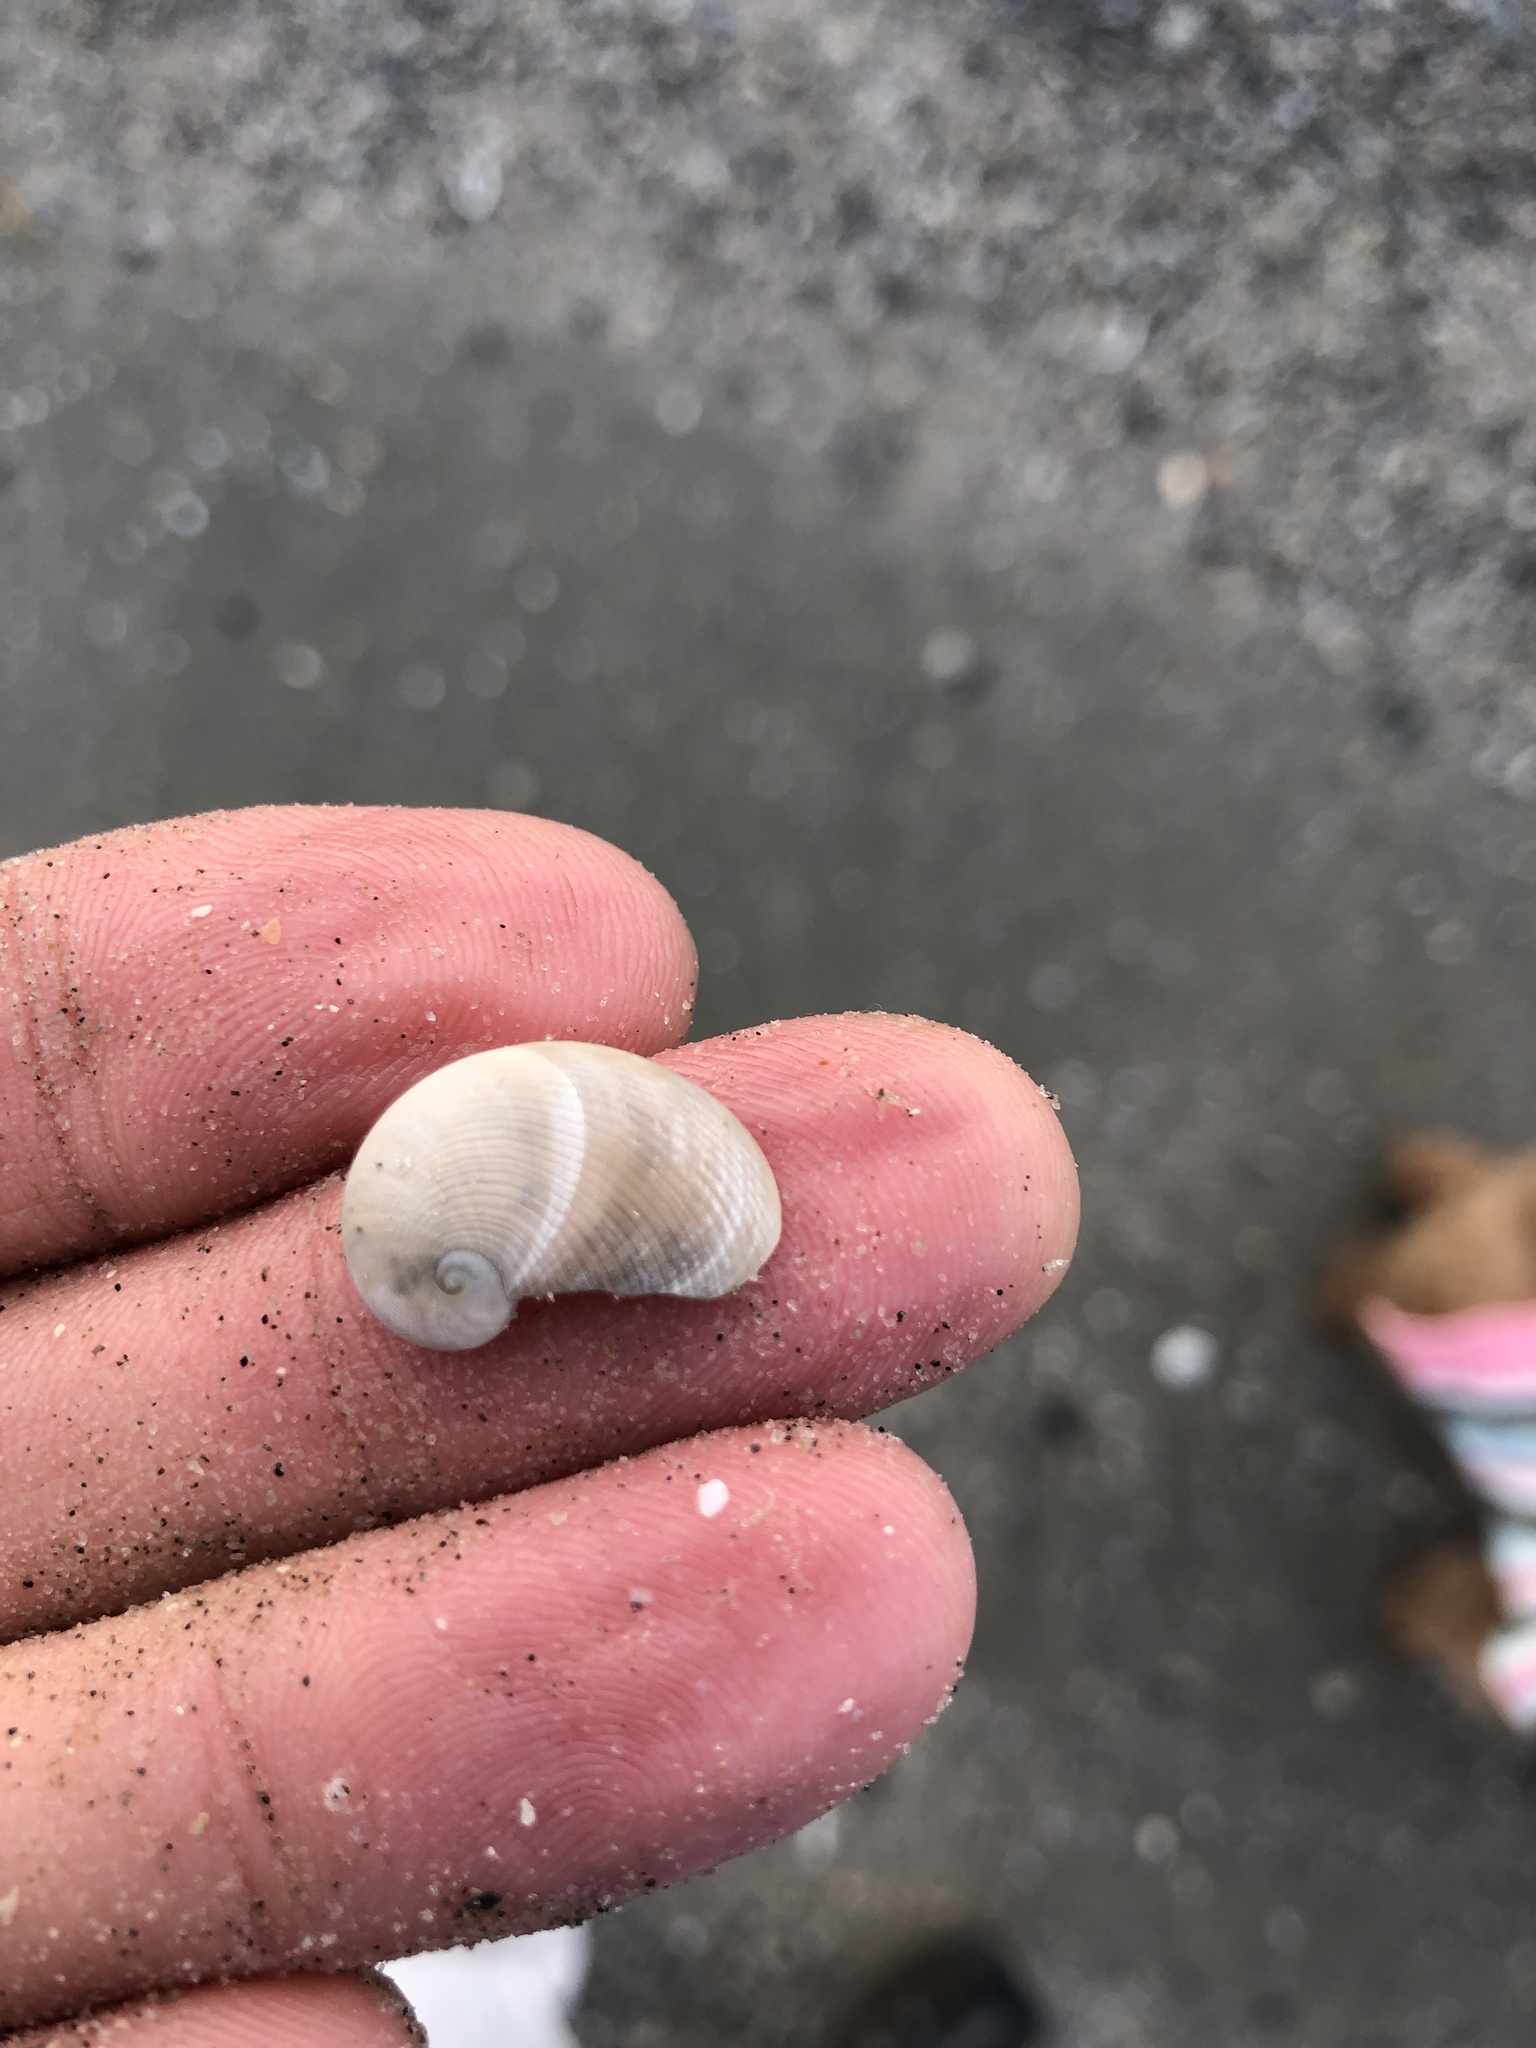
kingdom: Animalia
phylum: Mollusca
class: Gastropoda
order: Littorinimorpha
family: Naticidae
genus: Sinum
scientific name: Sinum perspectivum
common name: White baby ear
